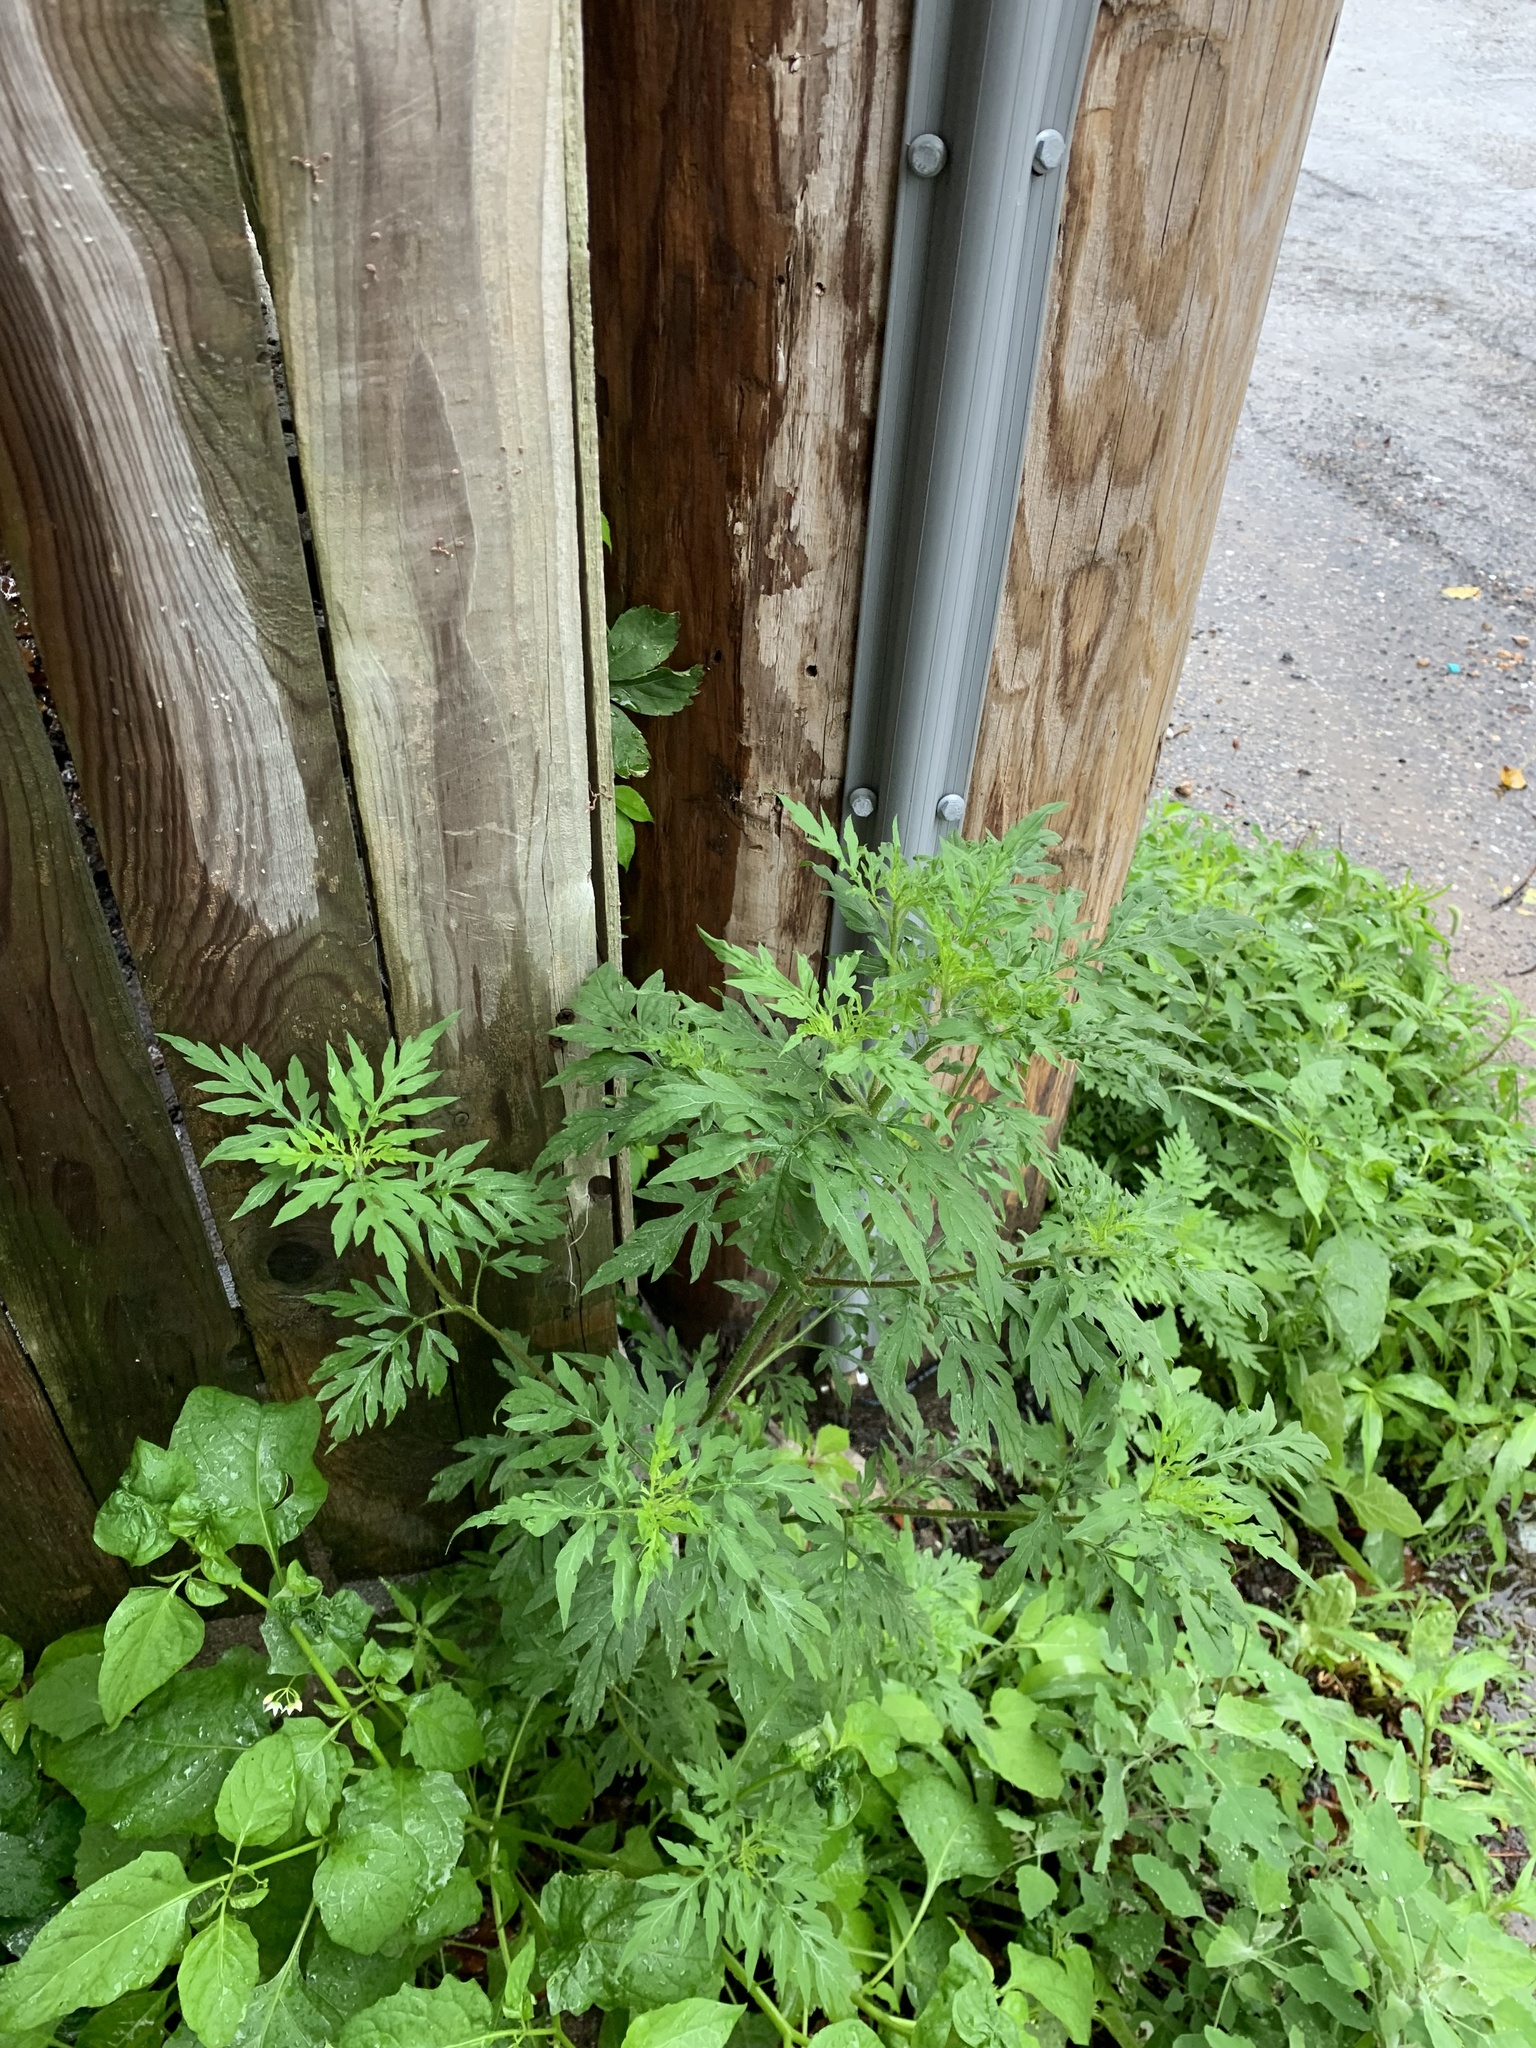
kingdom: Plantae
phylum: Tracheophyta
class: Magnoliopsida
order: Asterales
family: Asteraceae
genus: Ambrosia
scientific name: Ambrosia artemisiifolia
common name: Annual ragweed
